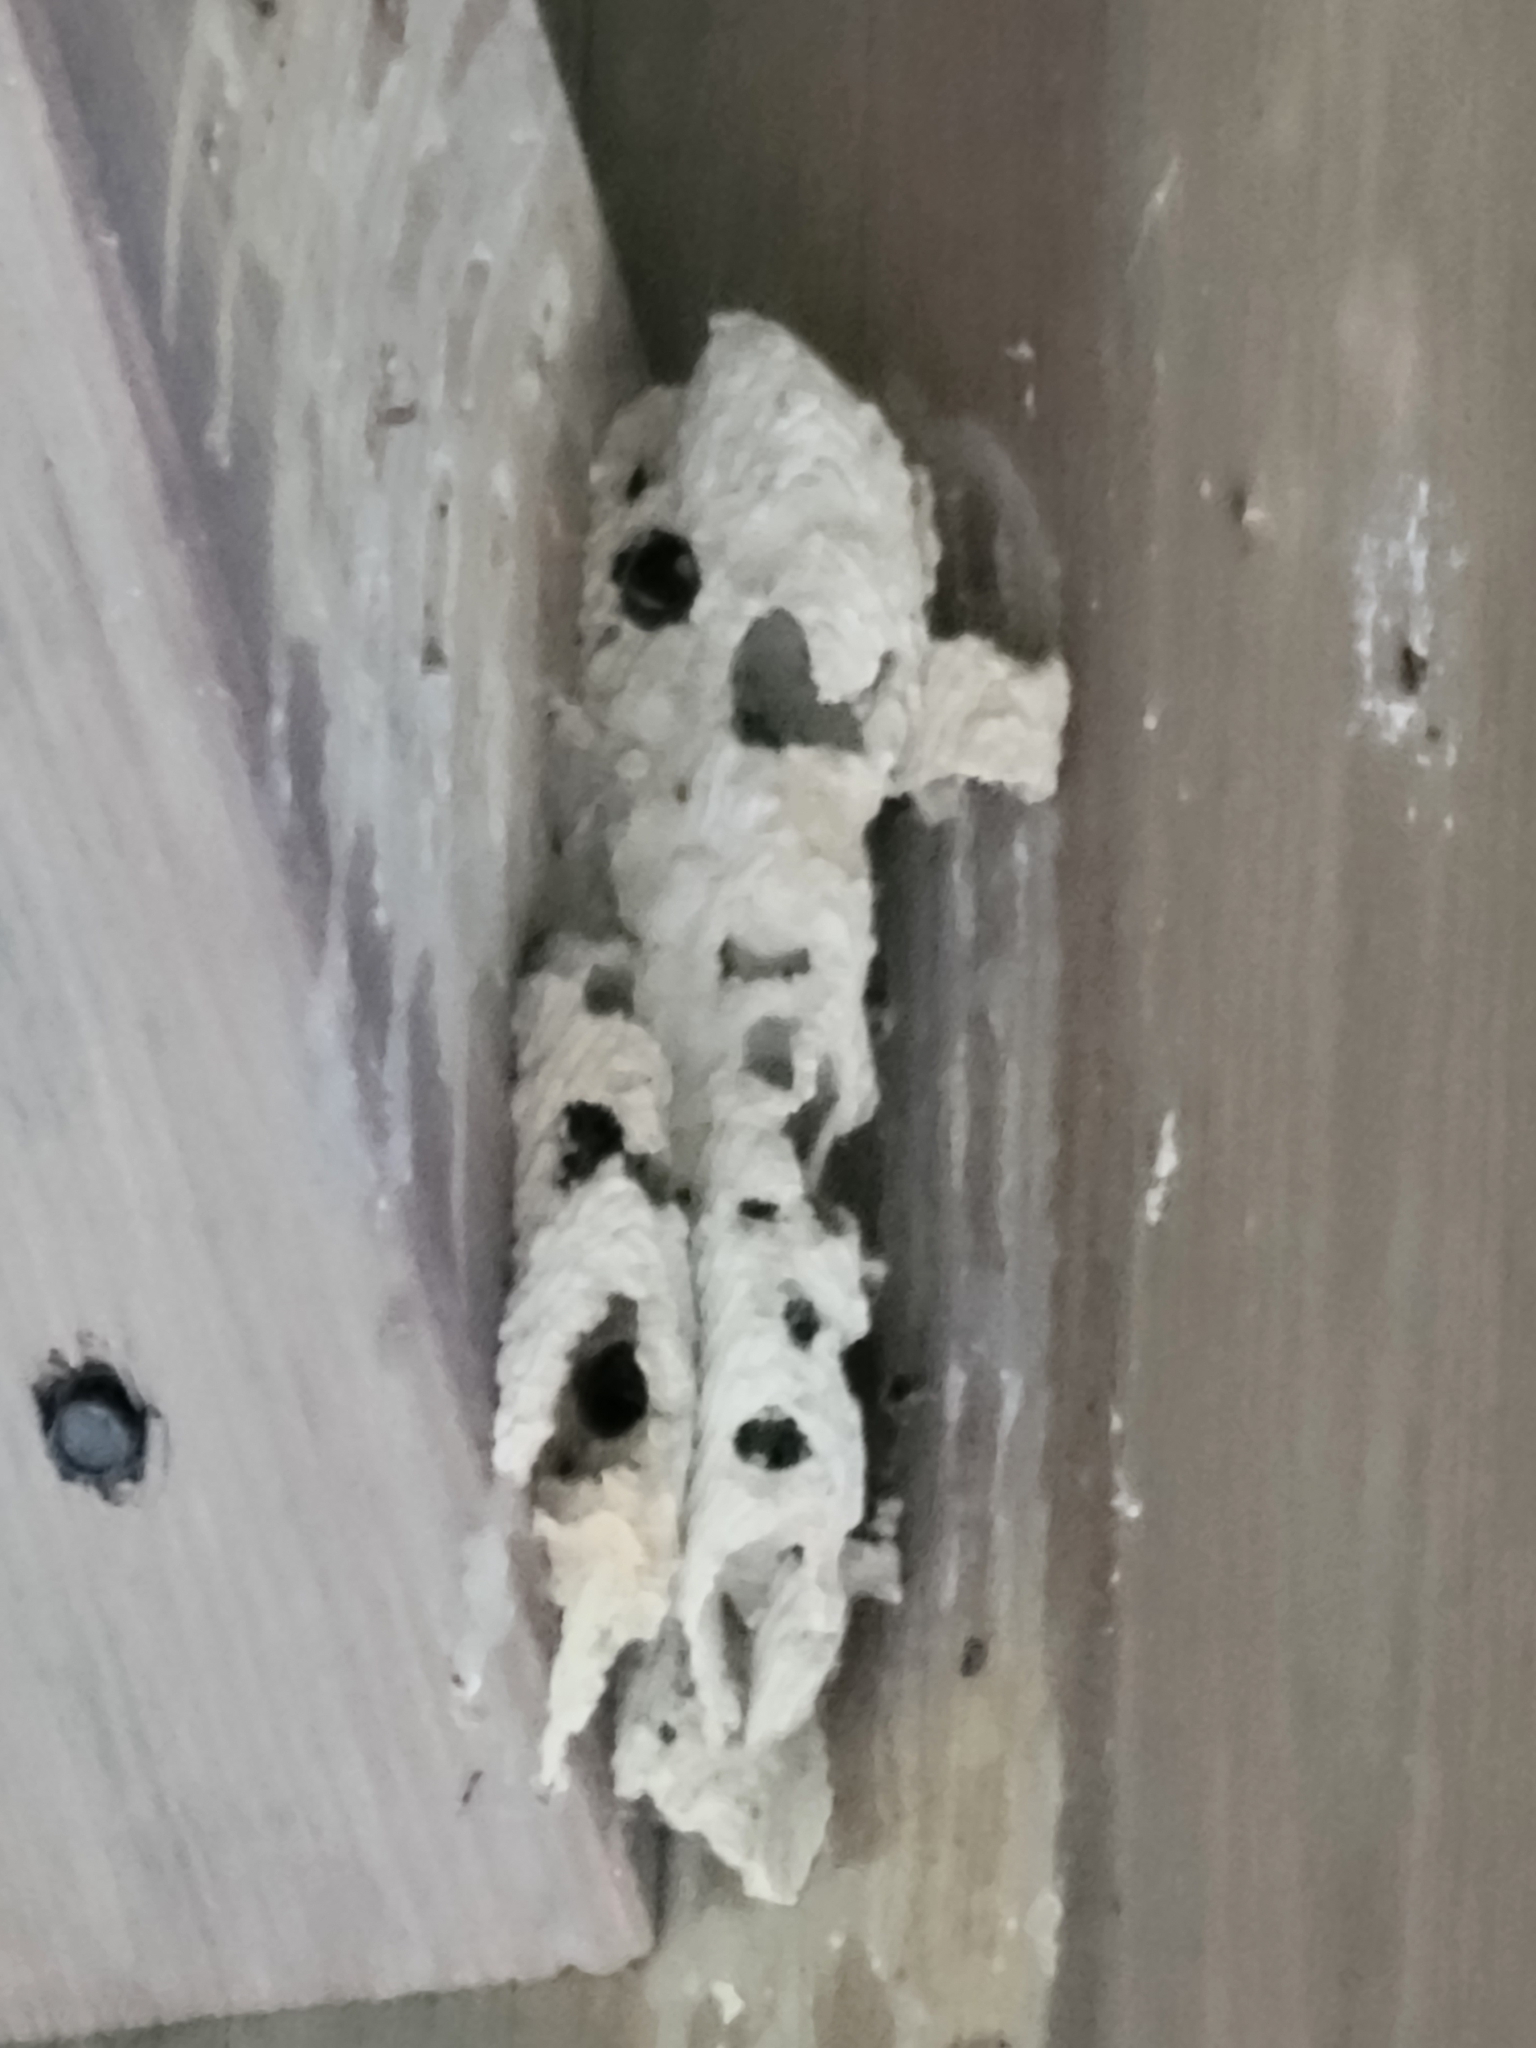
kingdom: Animalia
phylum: Arthropoda
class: Insecta
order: Hymenoptera
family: Crabronidae
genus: Trypoxylon
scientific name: Trypoxylon politum
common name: Organ-pipe mud-dauber wasp
